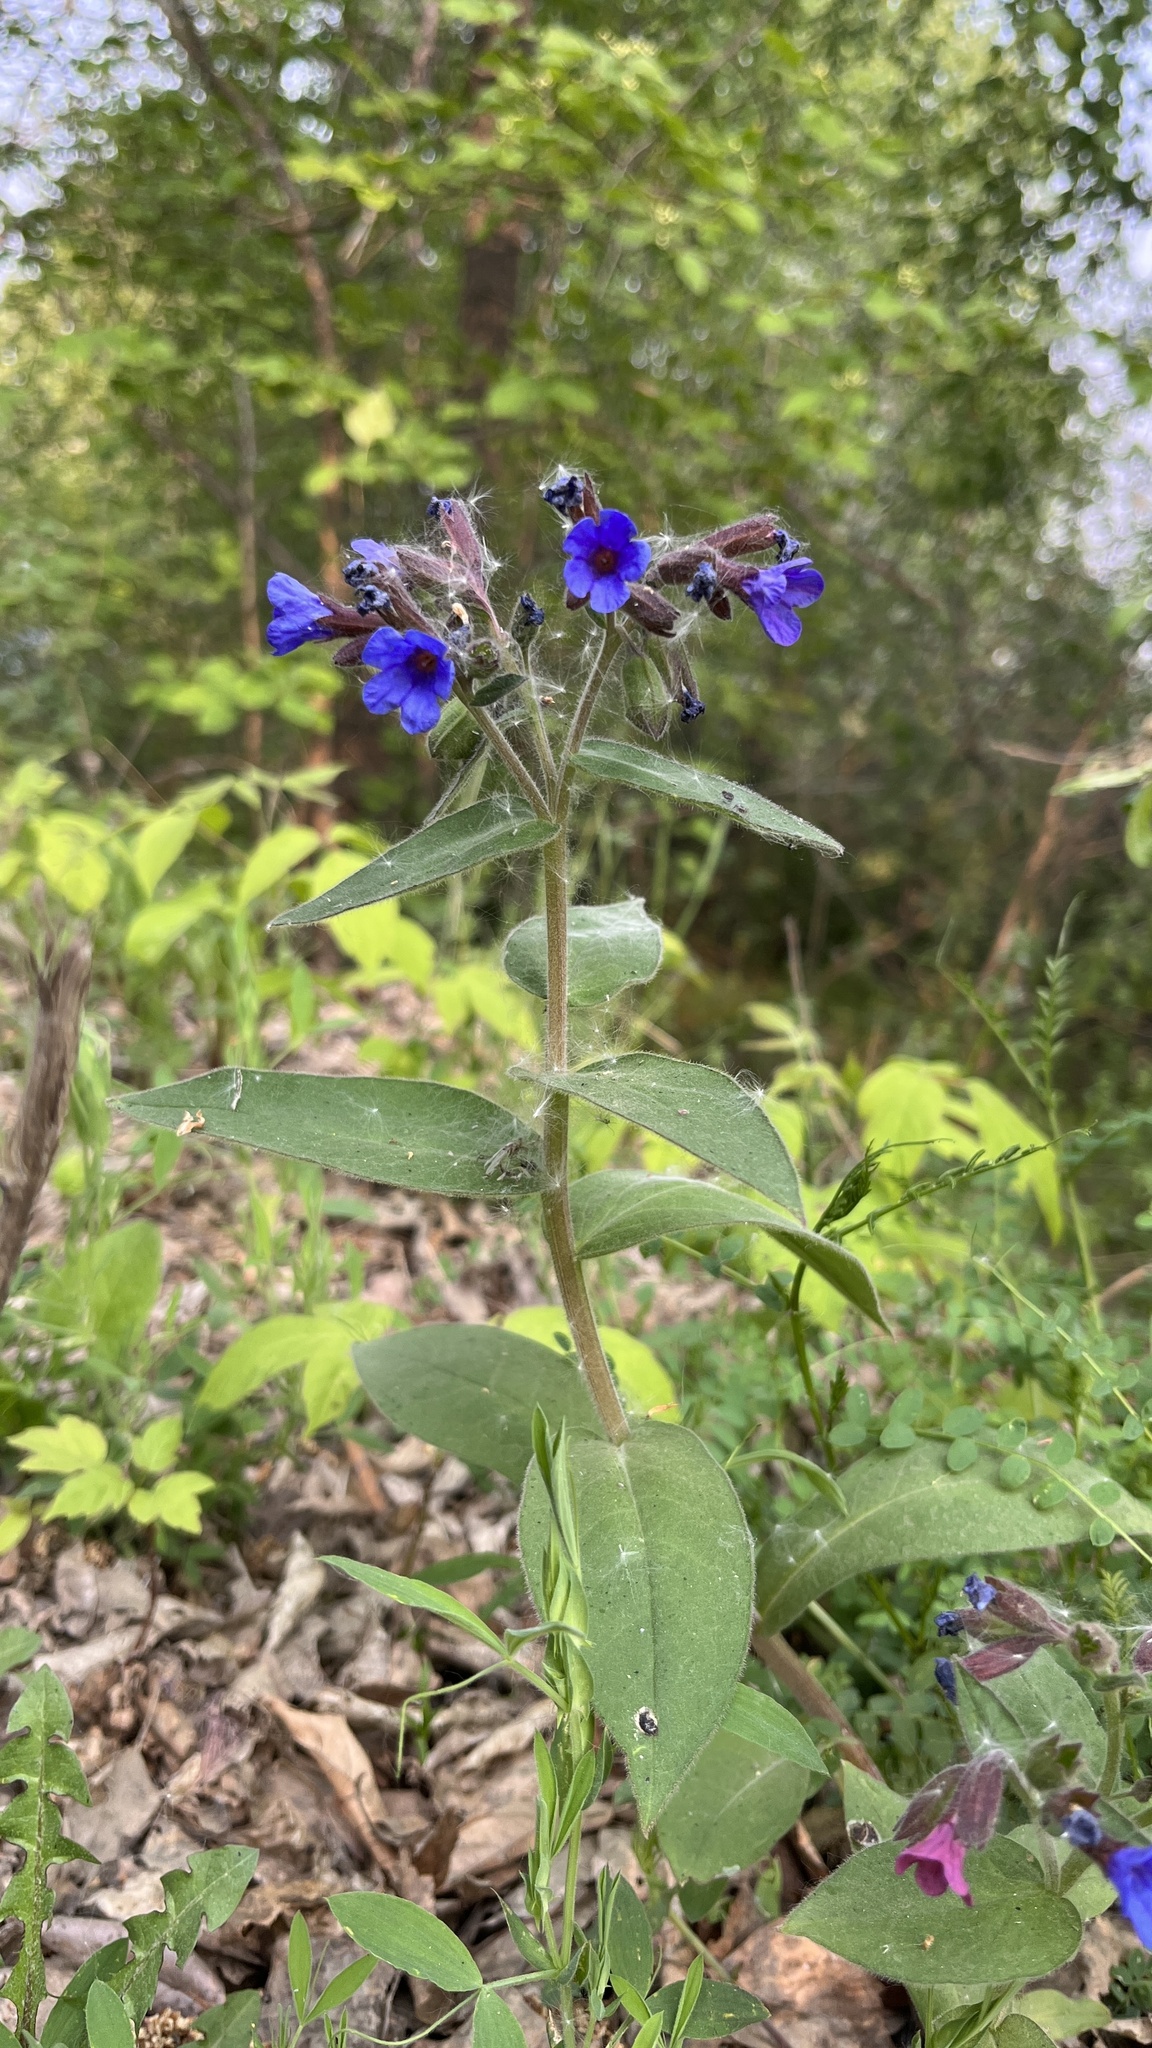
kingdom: Plantae
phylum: Tracheophyta
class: Magnoliopsida
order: Boraginales
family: Boraginaceae
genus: Pulmonaria
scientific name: Pulmonaria mollis
